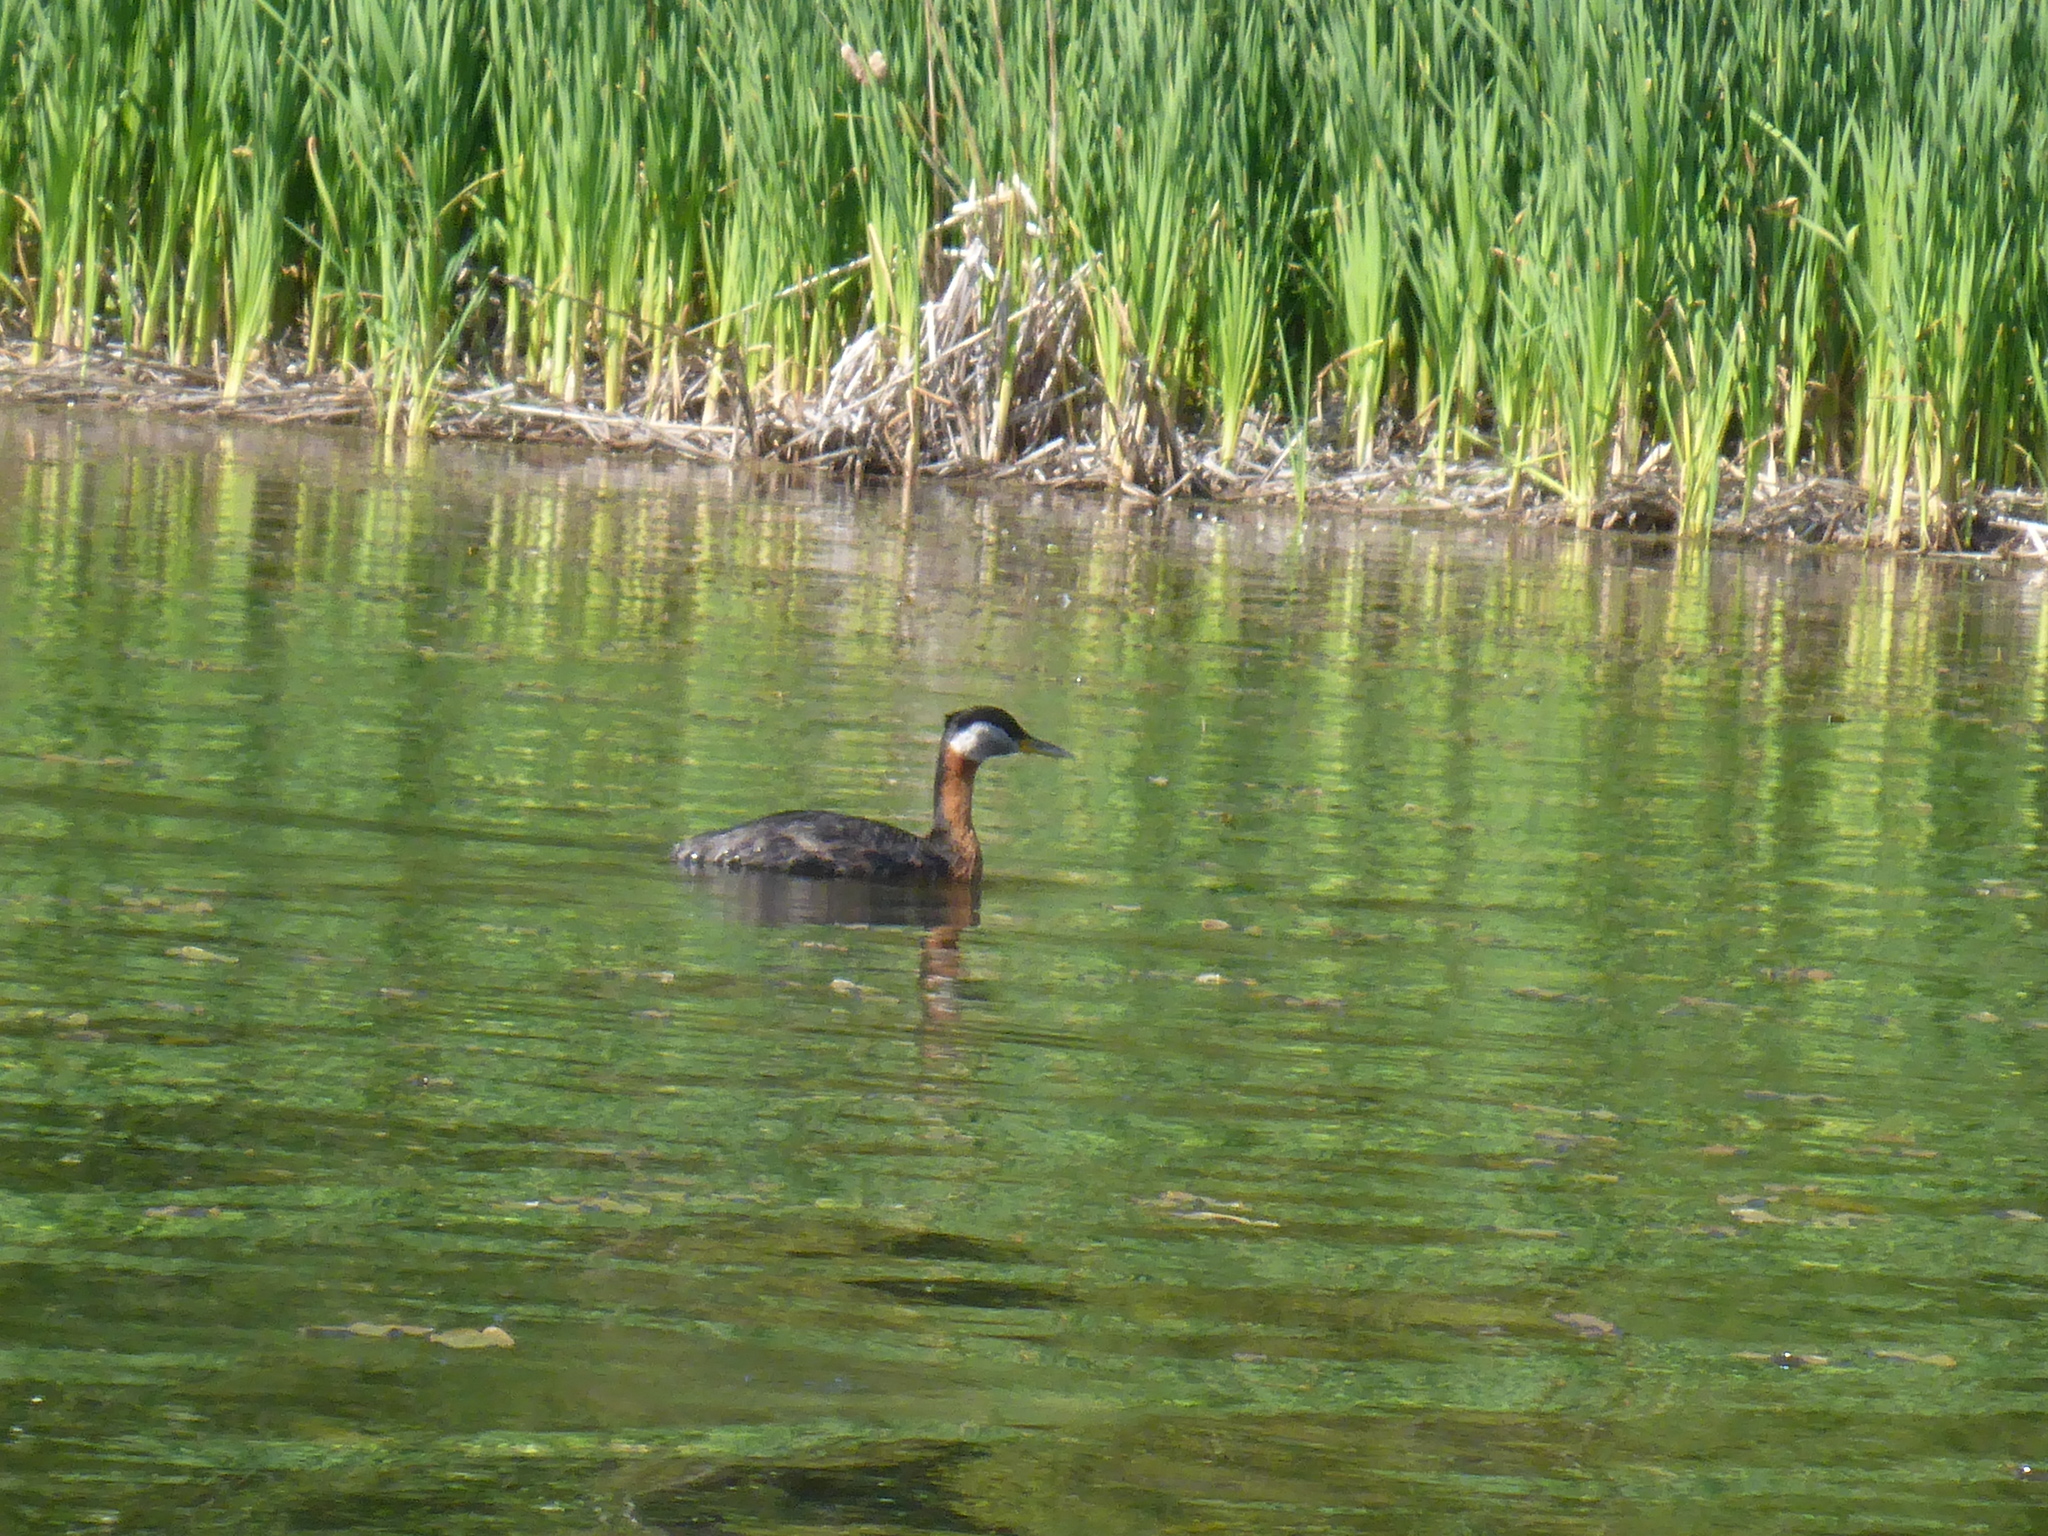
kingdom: Animalia
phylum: Chordata
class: Aves
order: Podicipediformes
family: Podicipedidae
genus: Podiceps
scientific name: Podiceps grisegena
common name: Red-necked grebe
